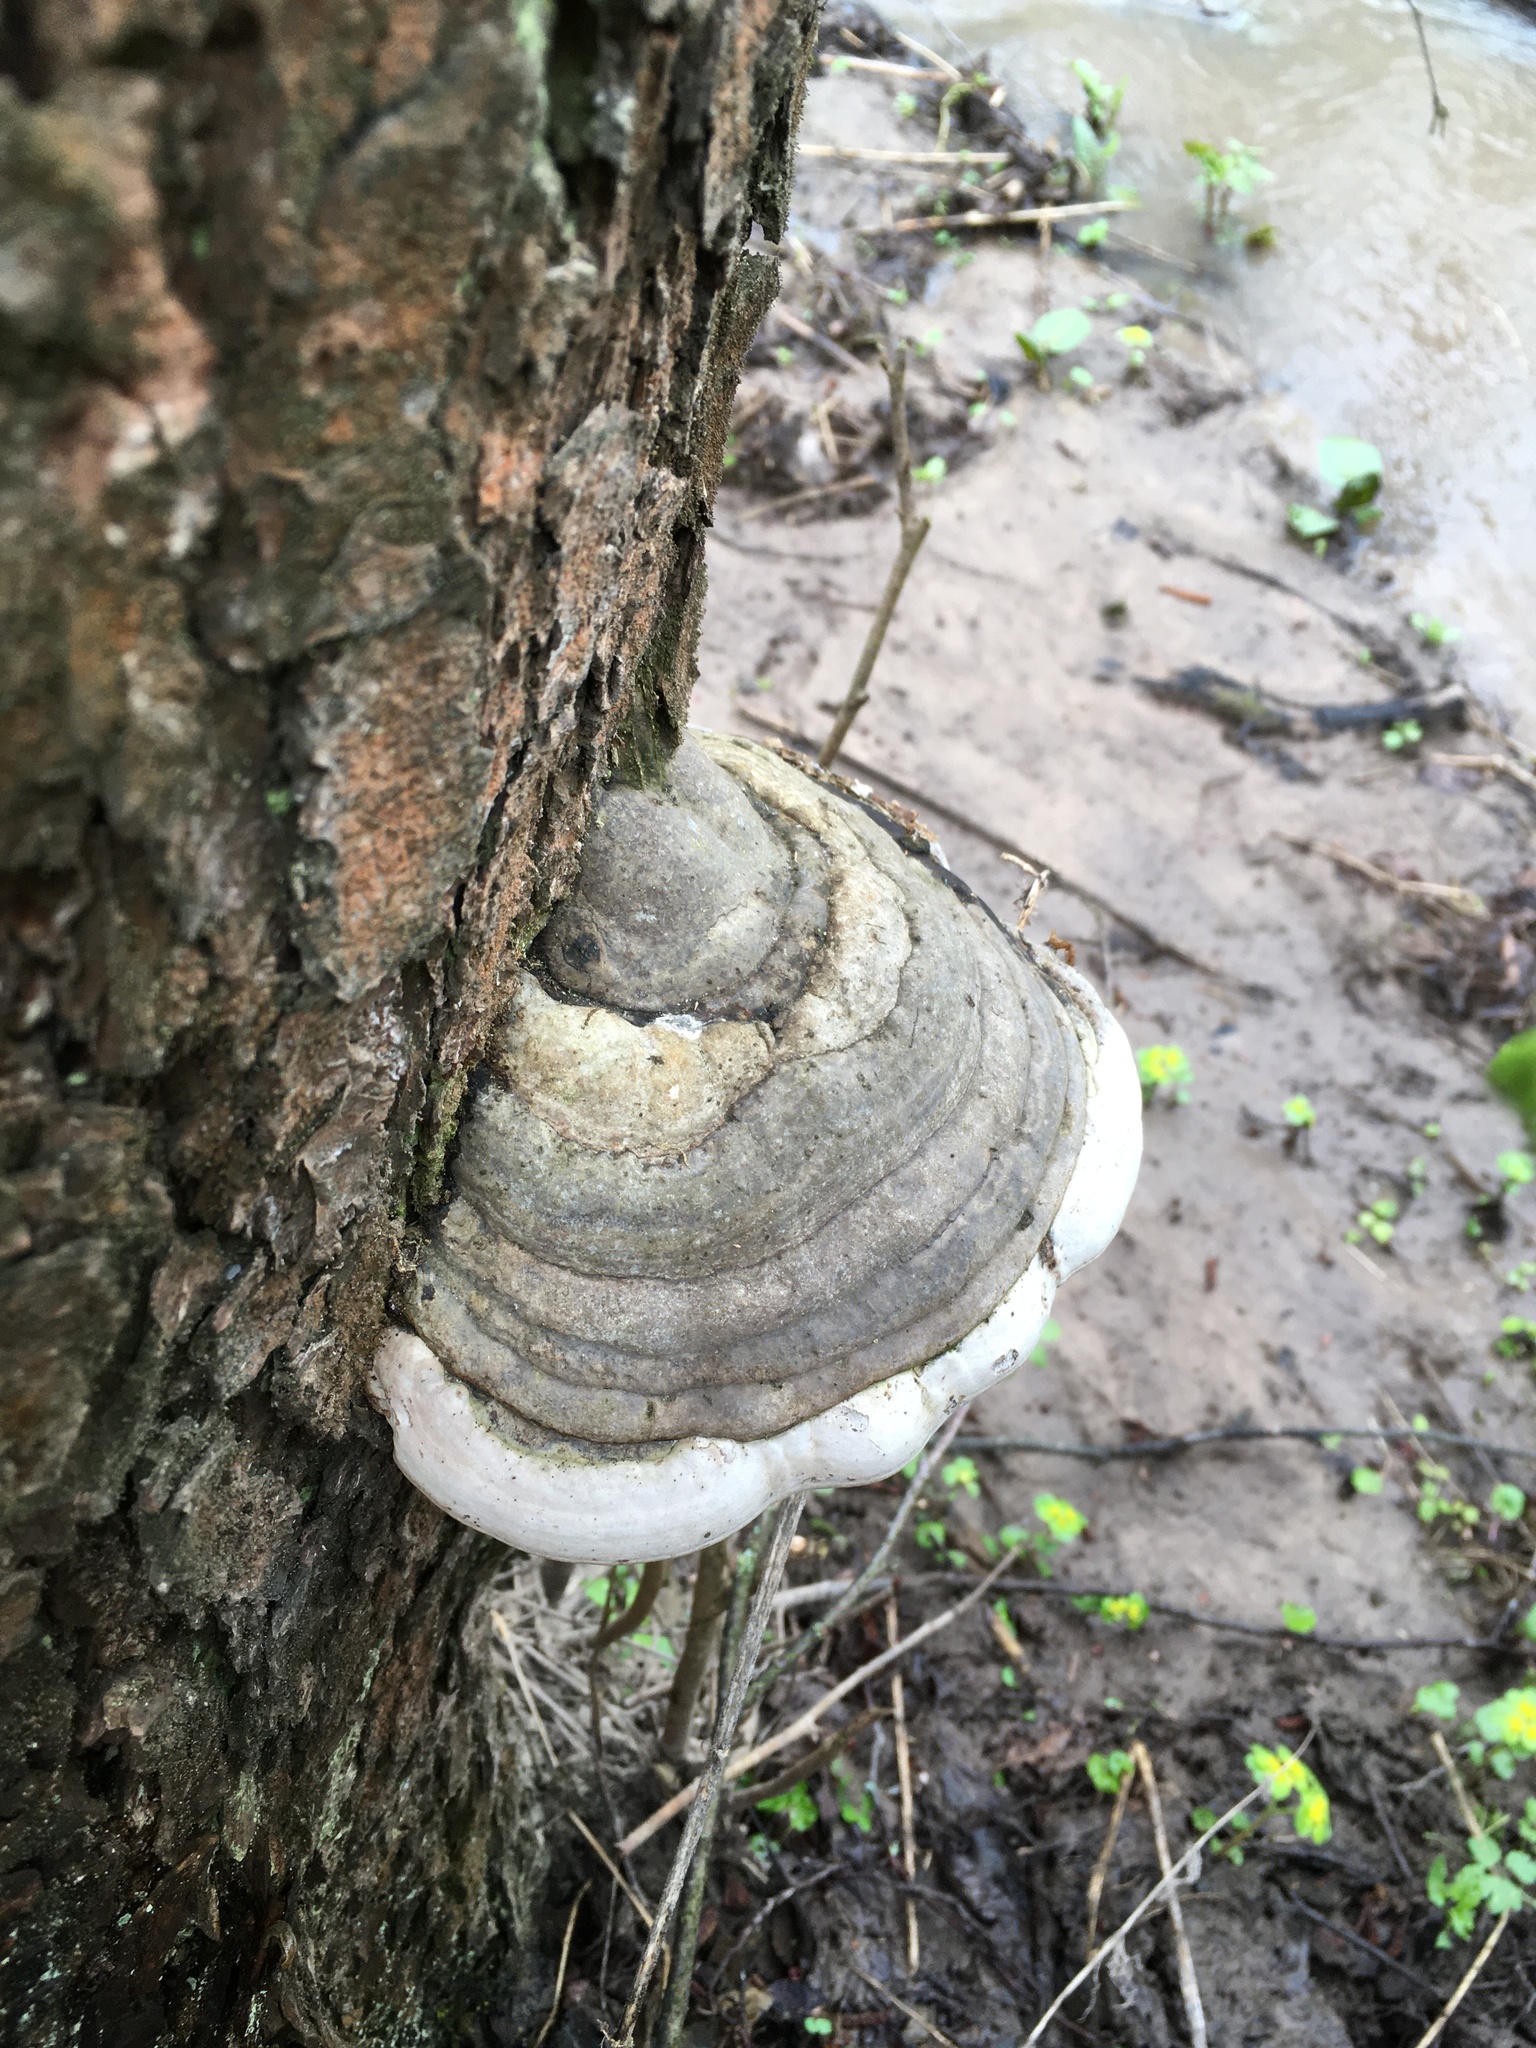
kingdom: Fungi
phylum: Basidiomycota
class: Agaricomycetes
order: Polyporales
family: Polyporaceae
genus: Fomes
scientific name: Fomes fomentarius
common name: Hoof fungus
